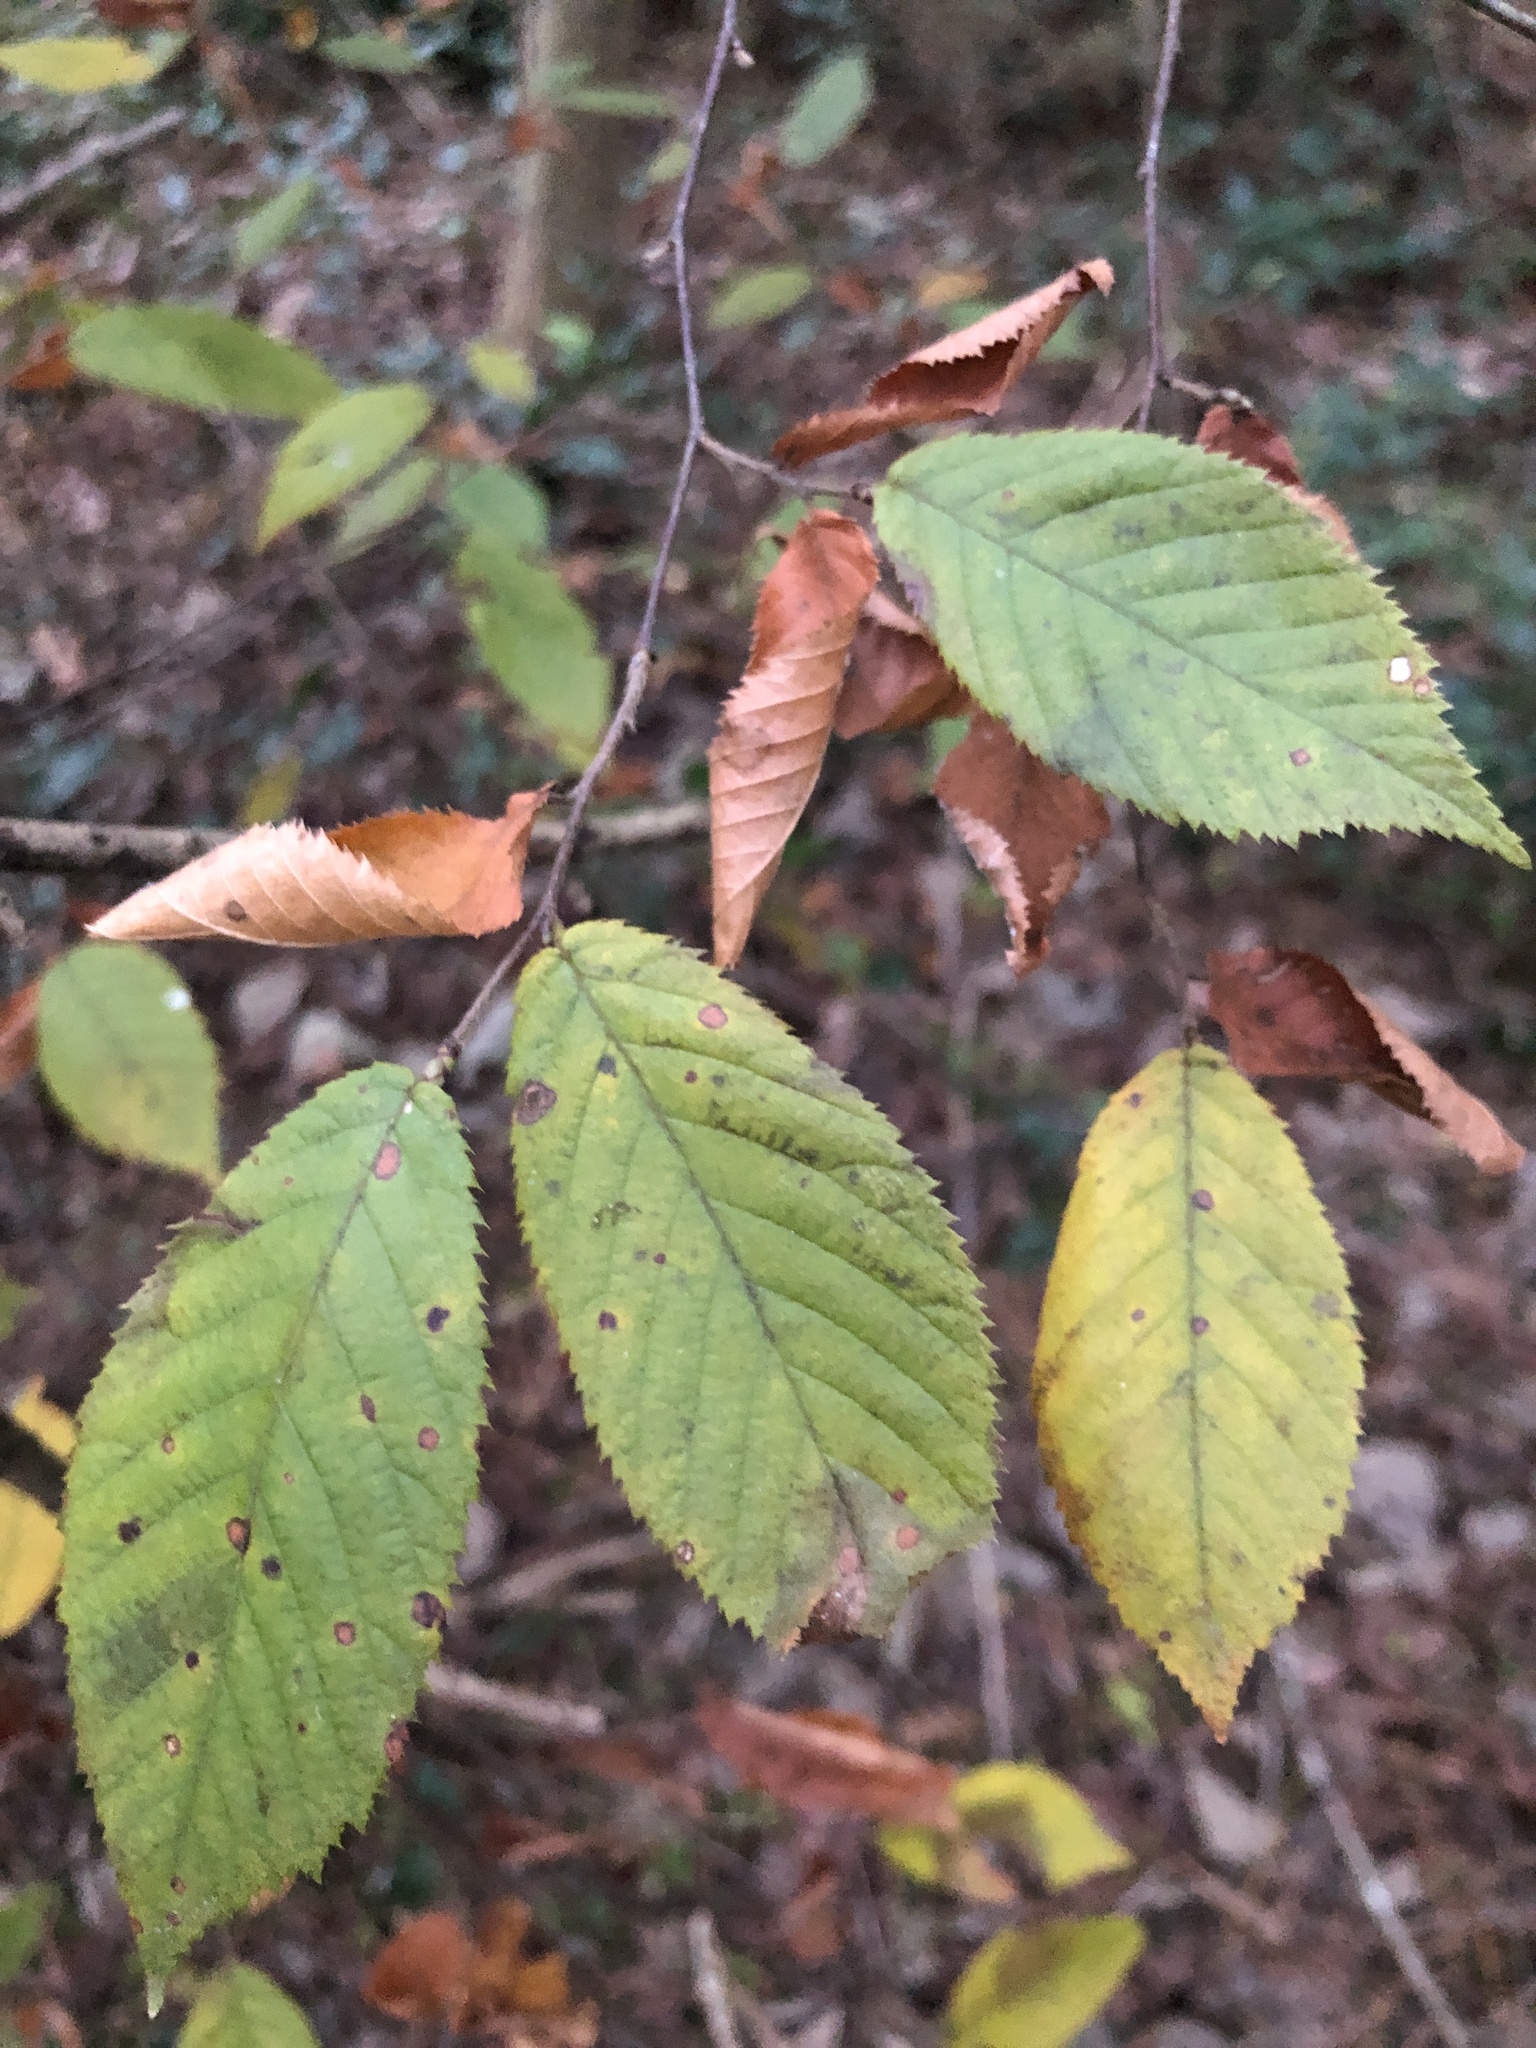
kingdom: Plantae
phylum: Tracheophyta
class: Magnoliopsida
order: Fagales
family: Betulaceae
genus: Ostrya
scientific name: Ostrya virginiana
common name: Ironwood
